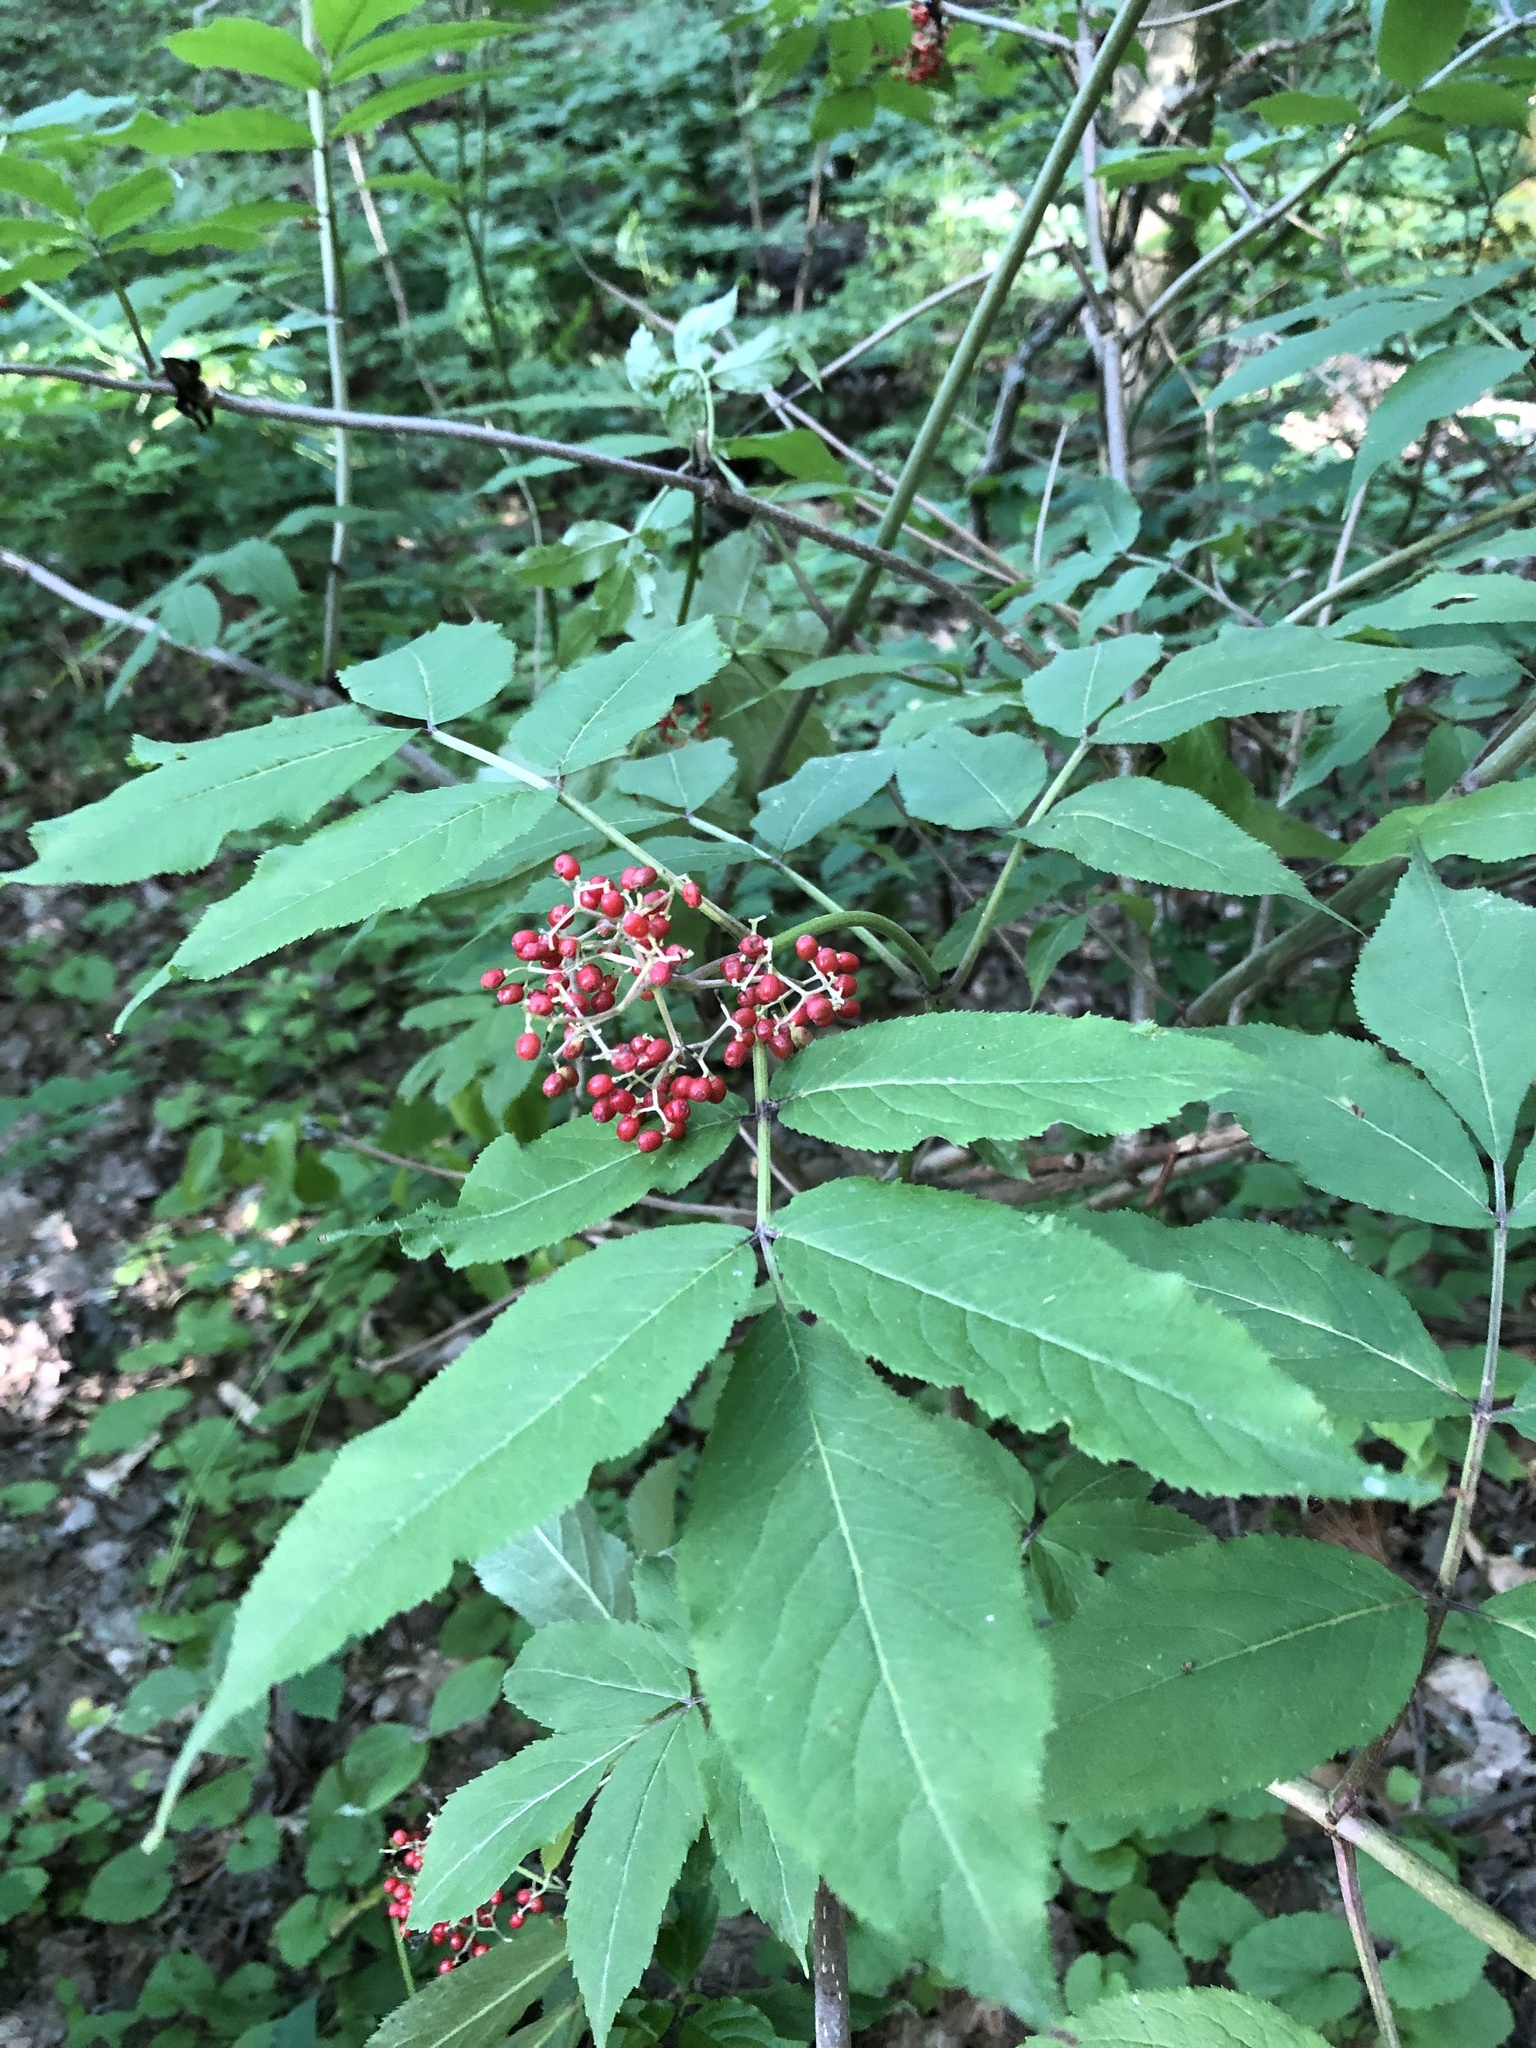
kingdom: Plantae
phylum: Tracheophyta
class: Magnoliopsida
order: Dipsacales
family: Viburnaceae
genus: Sambucus
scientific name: Sambucus racemosa
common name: Red-berried elder
